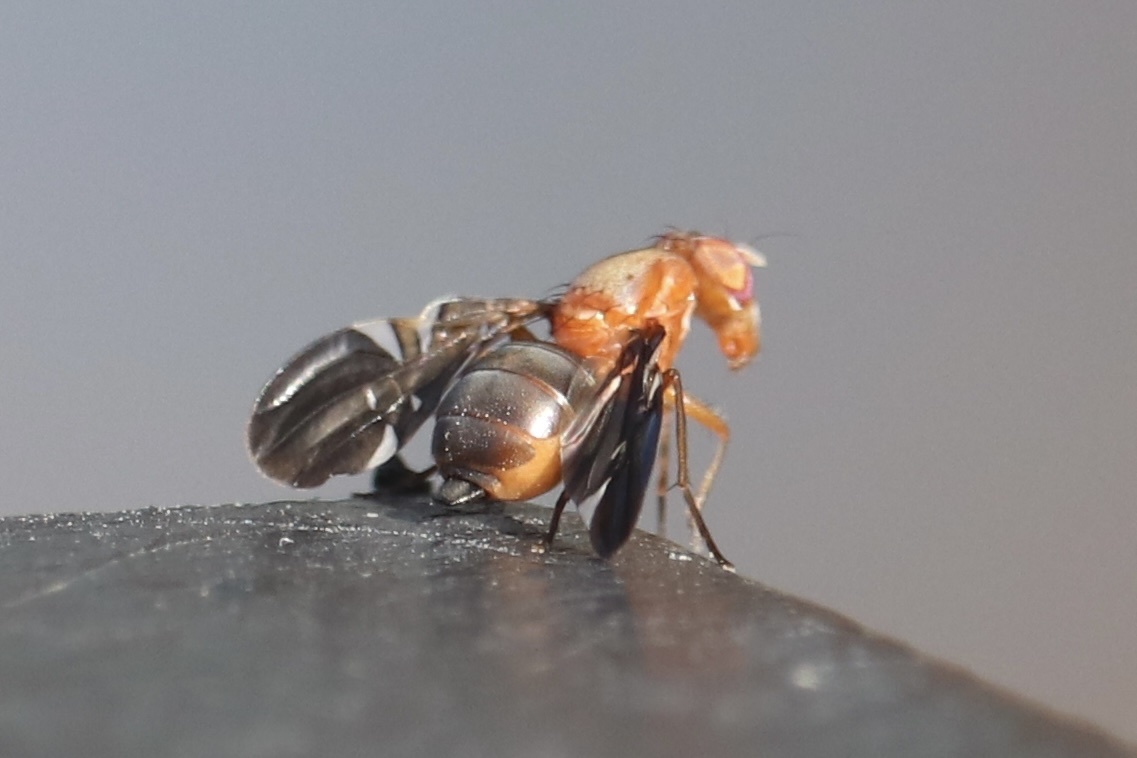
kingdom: Animalia
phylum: Arthropoda
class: Insecta
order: Diptera
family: Ulidiidae
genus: Delphinia
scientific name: Delphinia picta
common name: Common picture-winged fly
